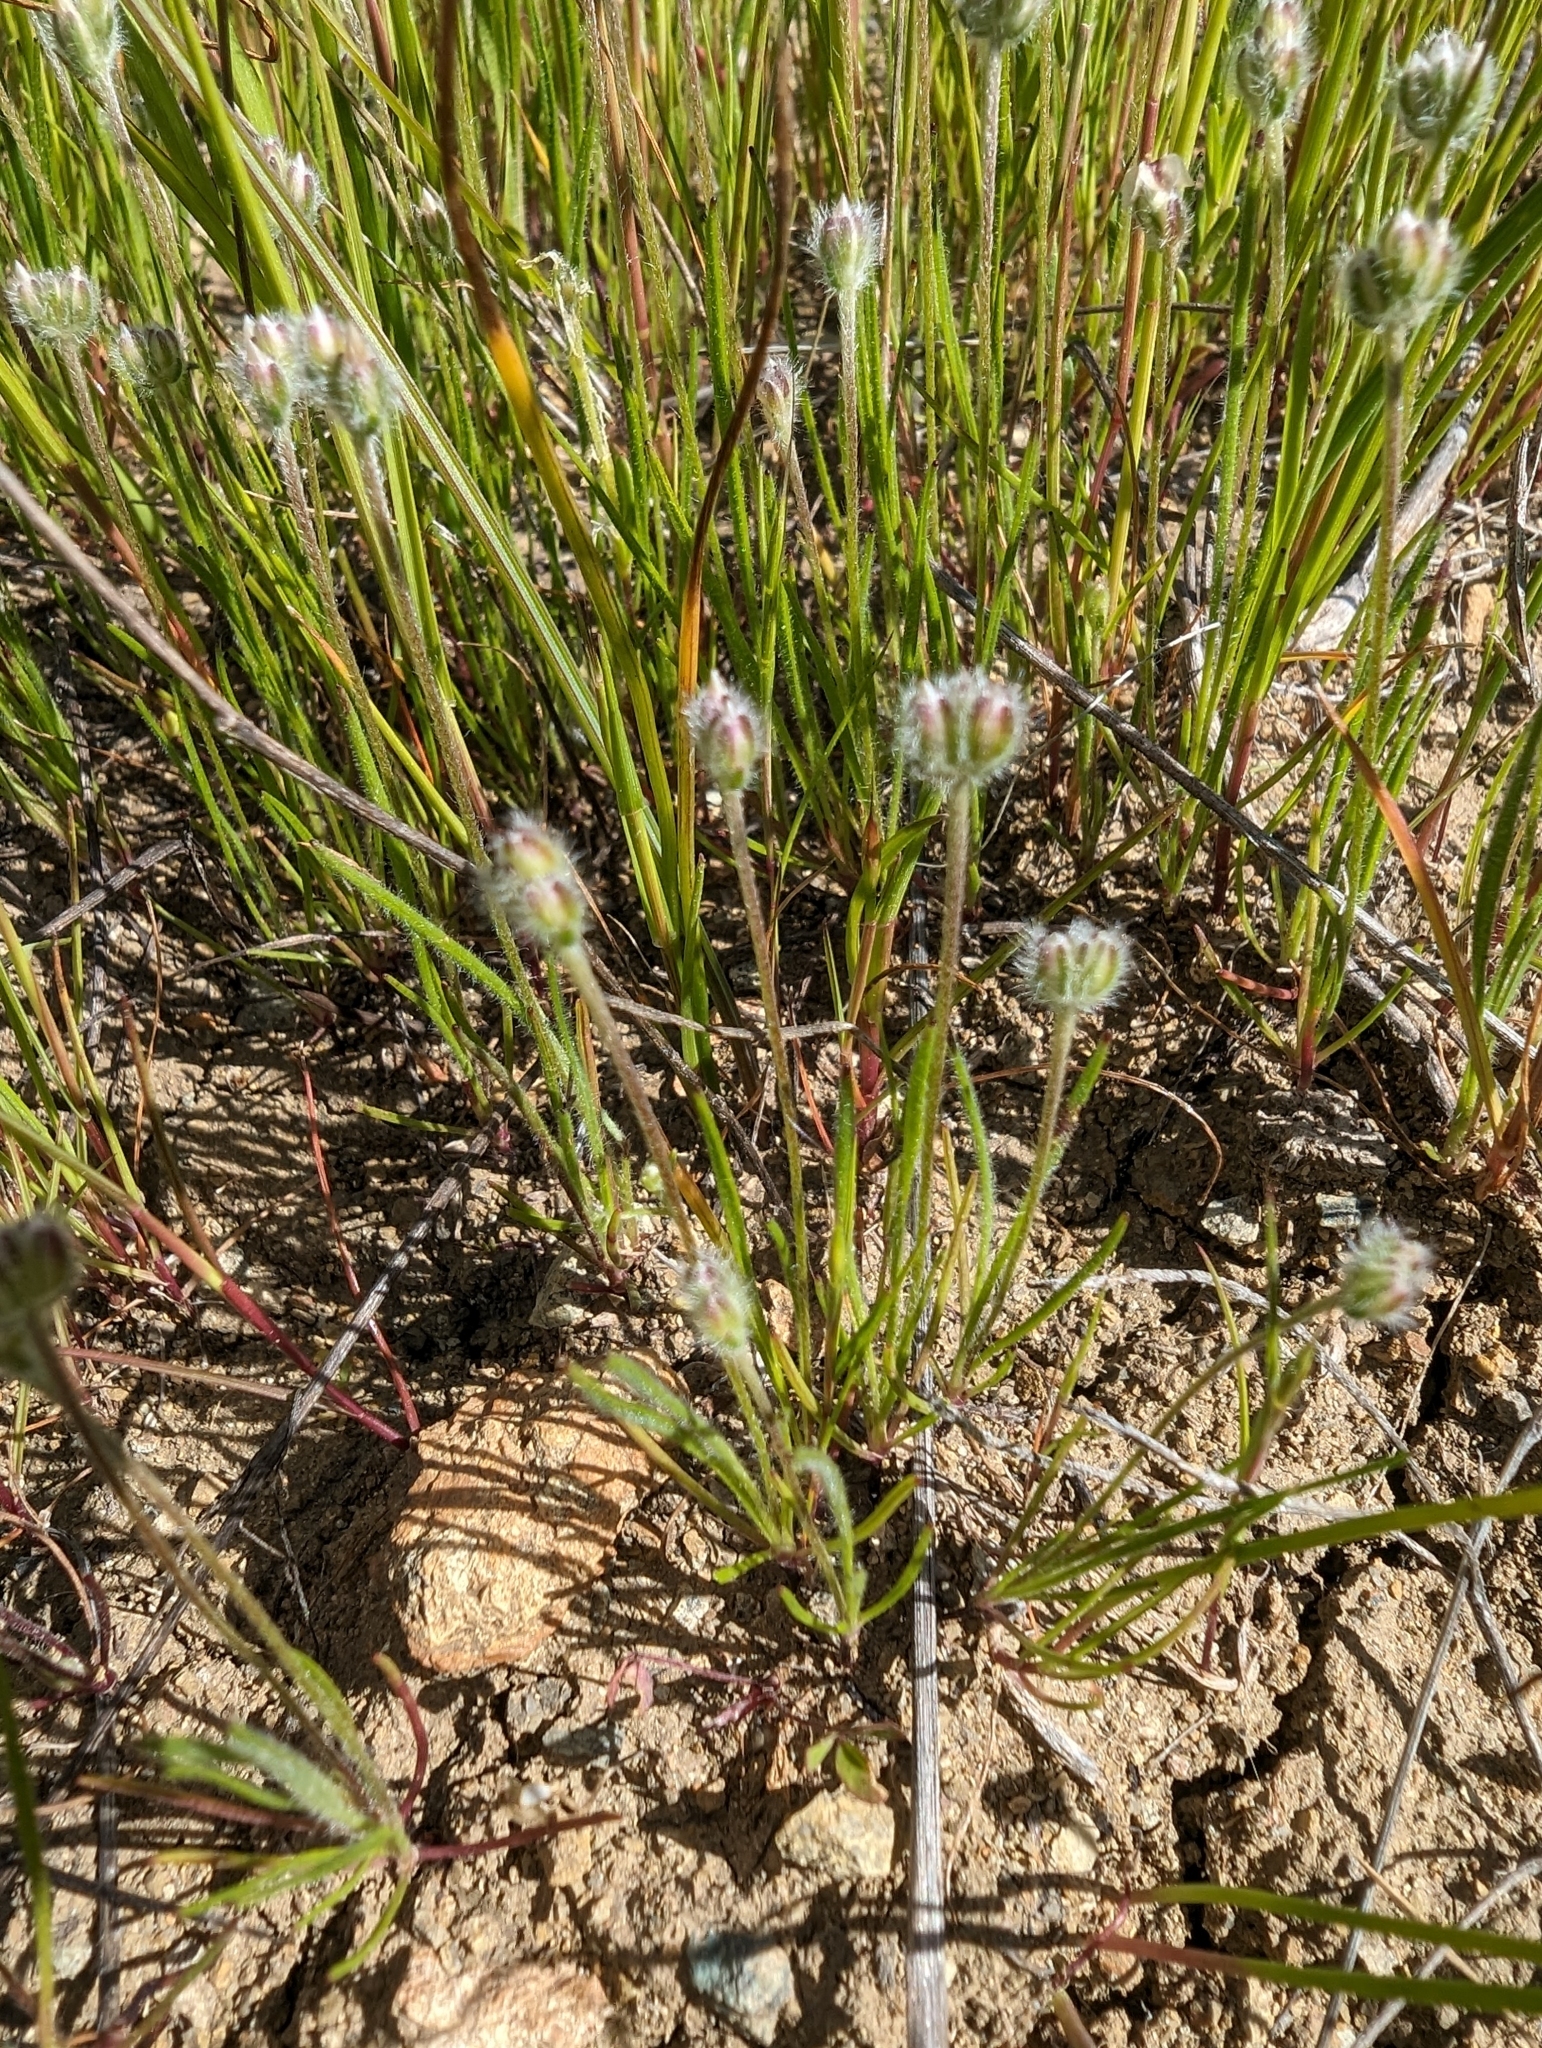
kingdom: Plantae
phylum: Tracheophyta
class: Magnoliopsida
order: Lamiales
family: Plantaginaceae
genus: Plantago
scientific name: Plantago erecta
